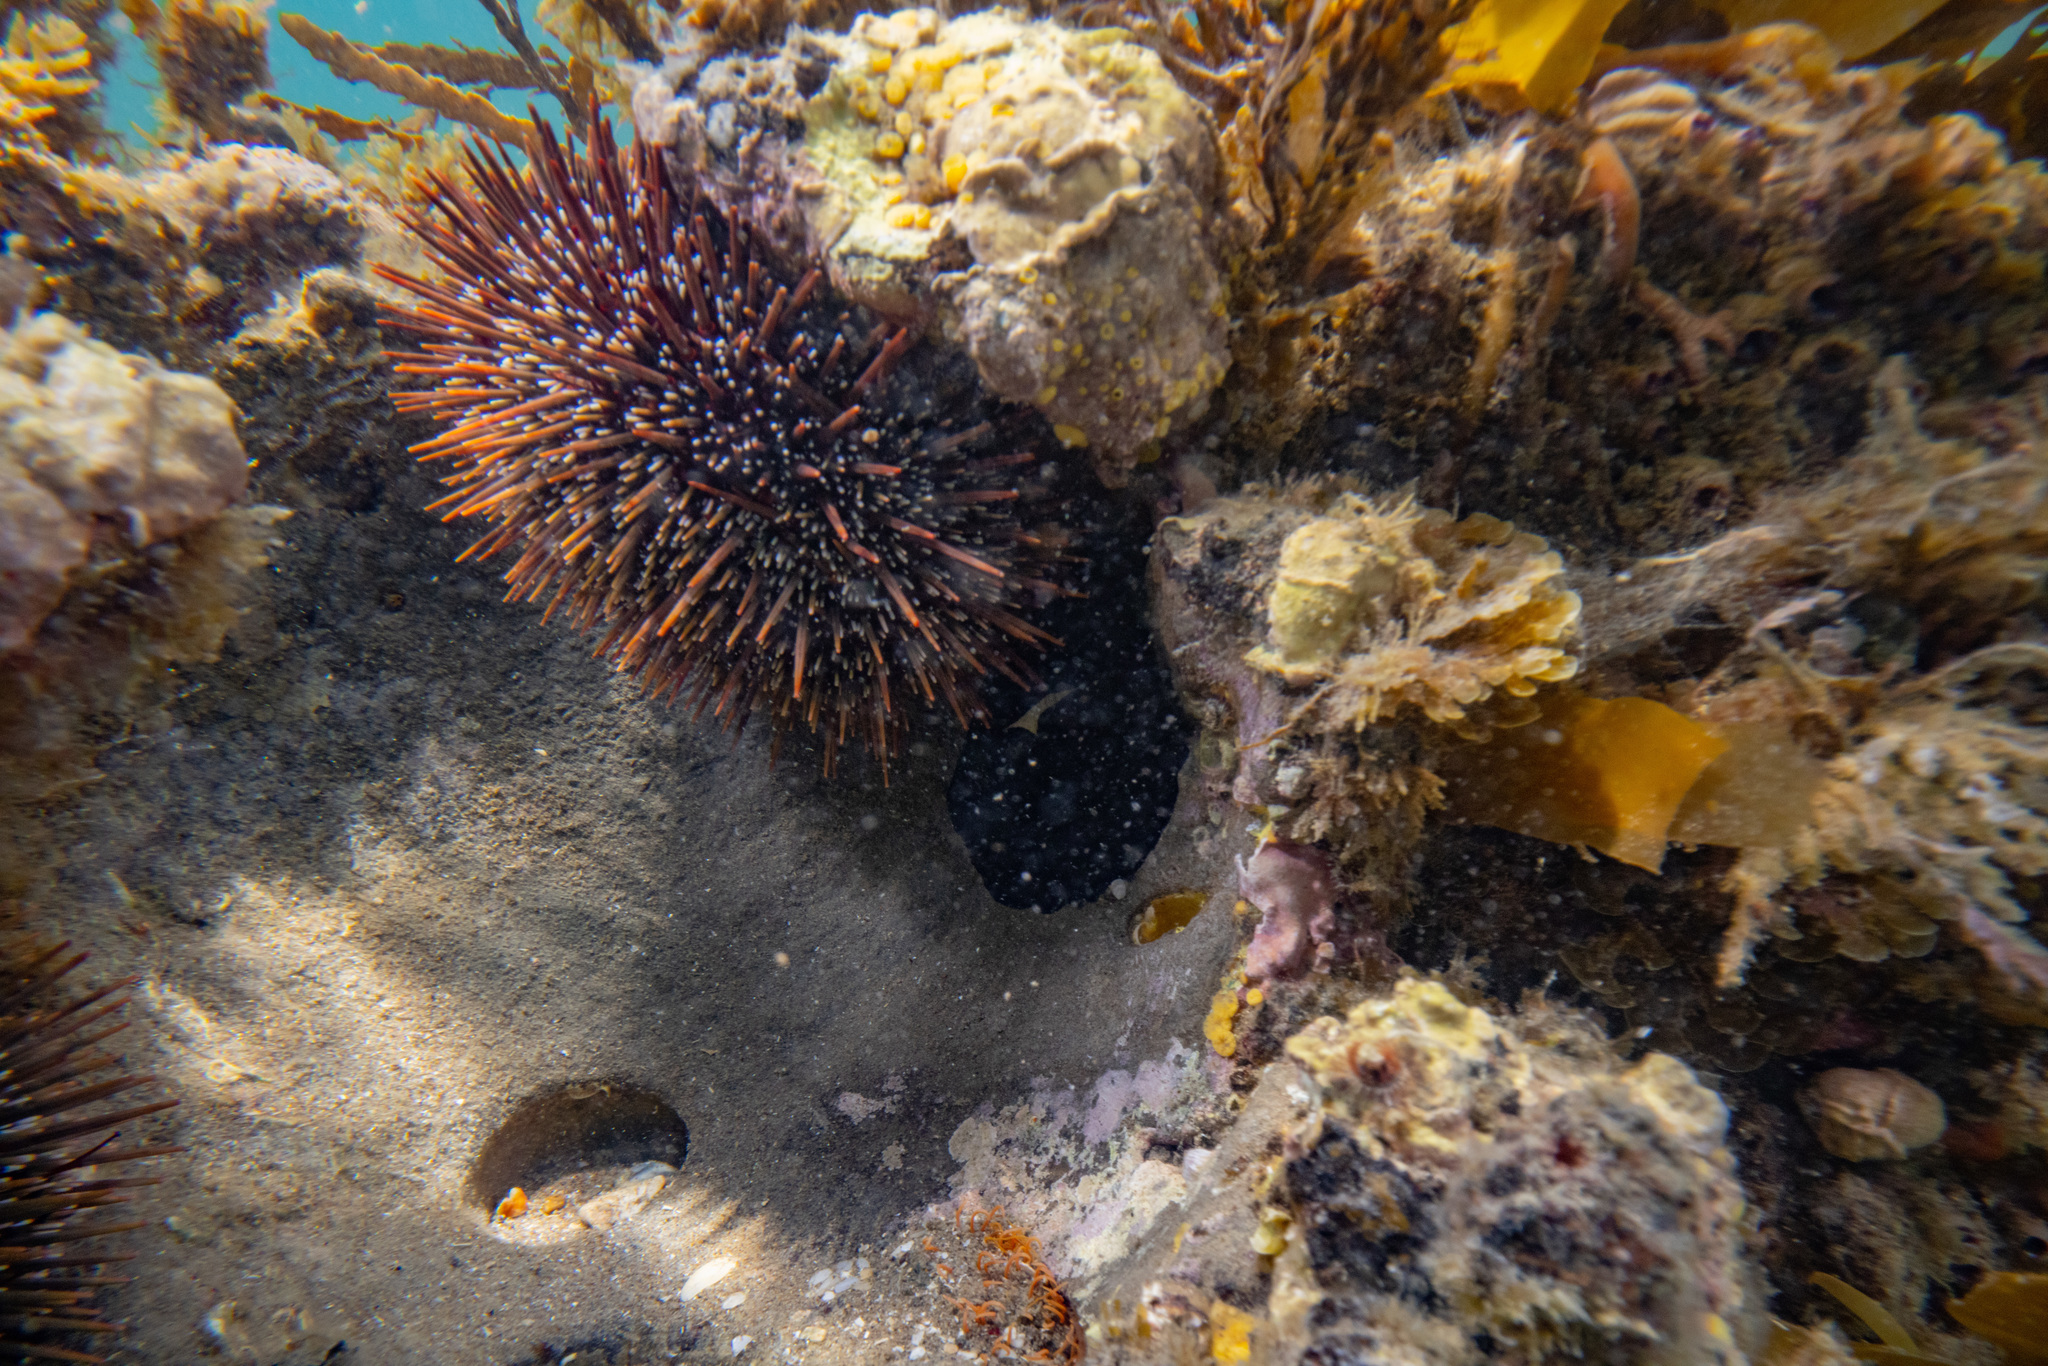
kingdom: Animalia
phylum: Echinodermata
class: Echinoidea
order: Camarodonta
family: Echinometridae
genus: Evechinus
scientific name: Evechinus chloroticus
